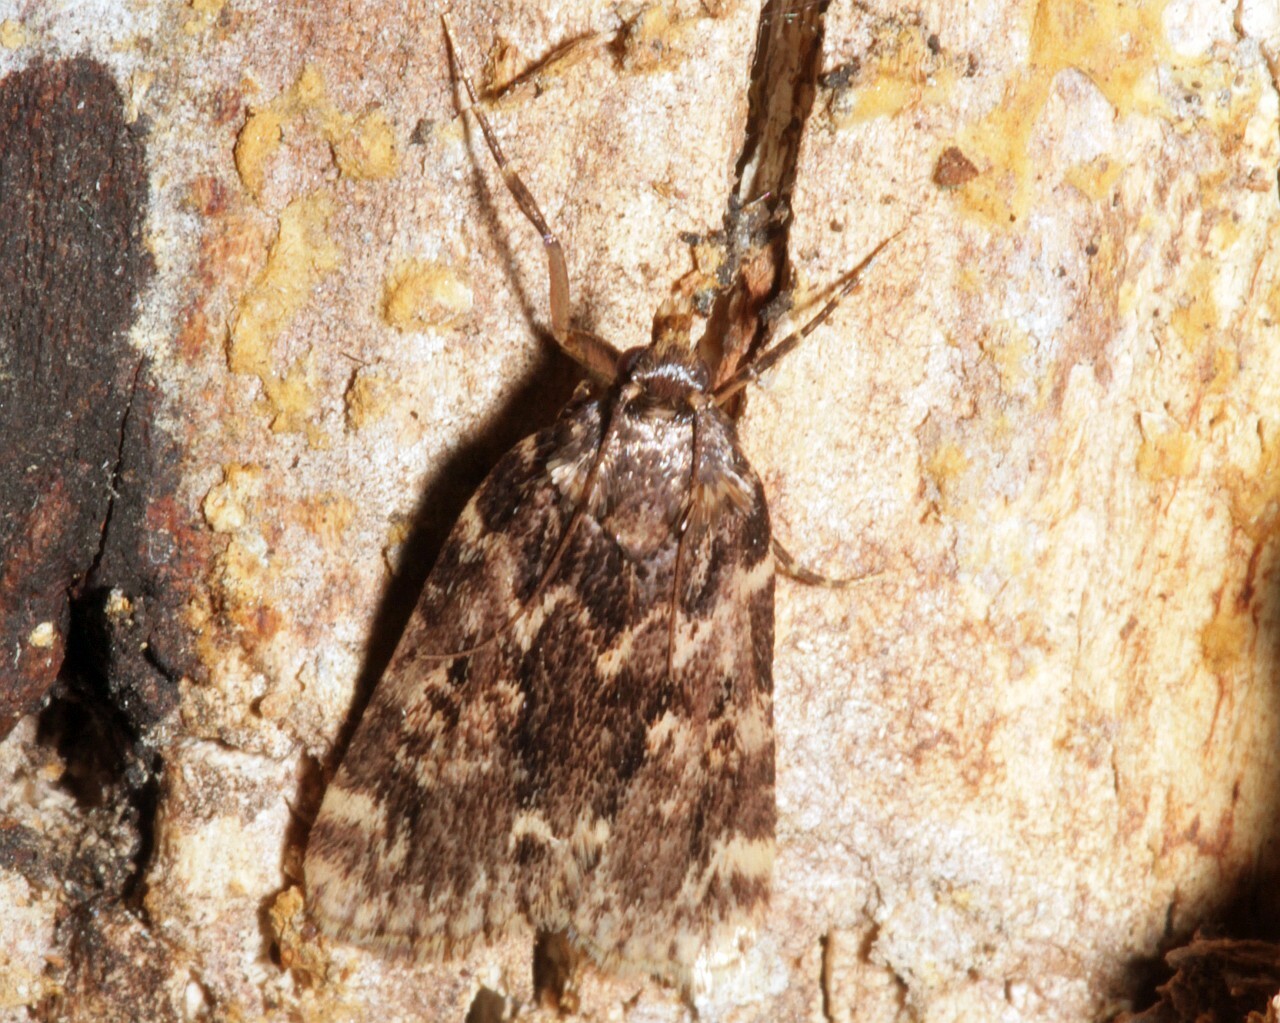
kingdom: Animalia
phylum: Arthropoda
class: Insecta
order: Lepidoptera
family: Pyralidae
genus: Aglossa
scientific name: Aglossa caprealis
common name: Small tabby
